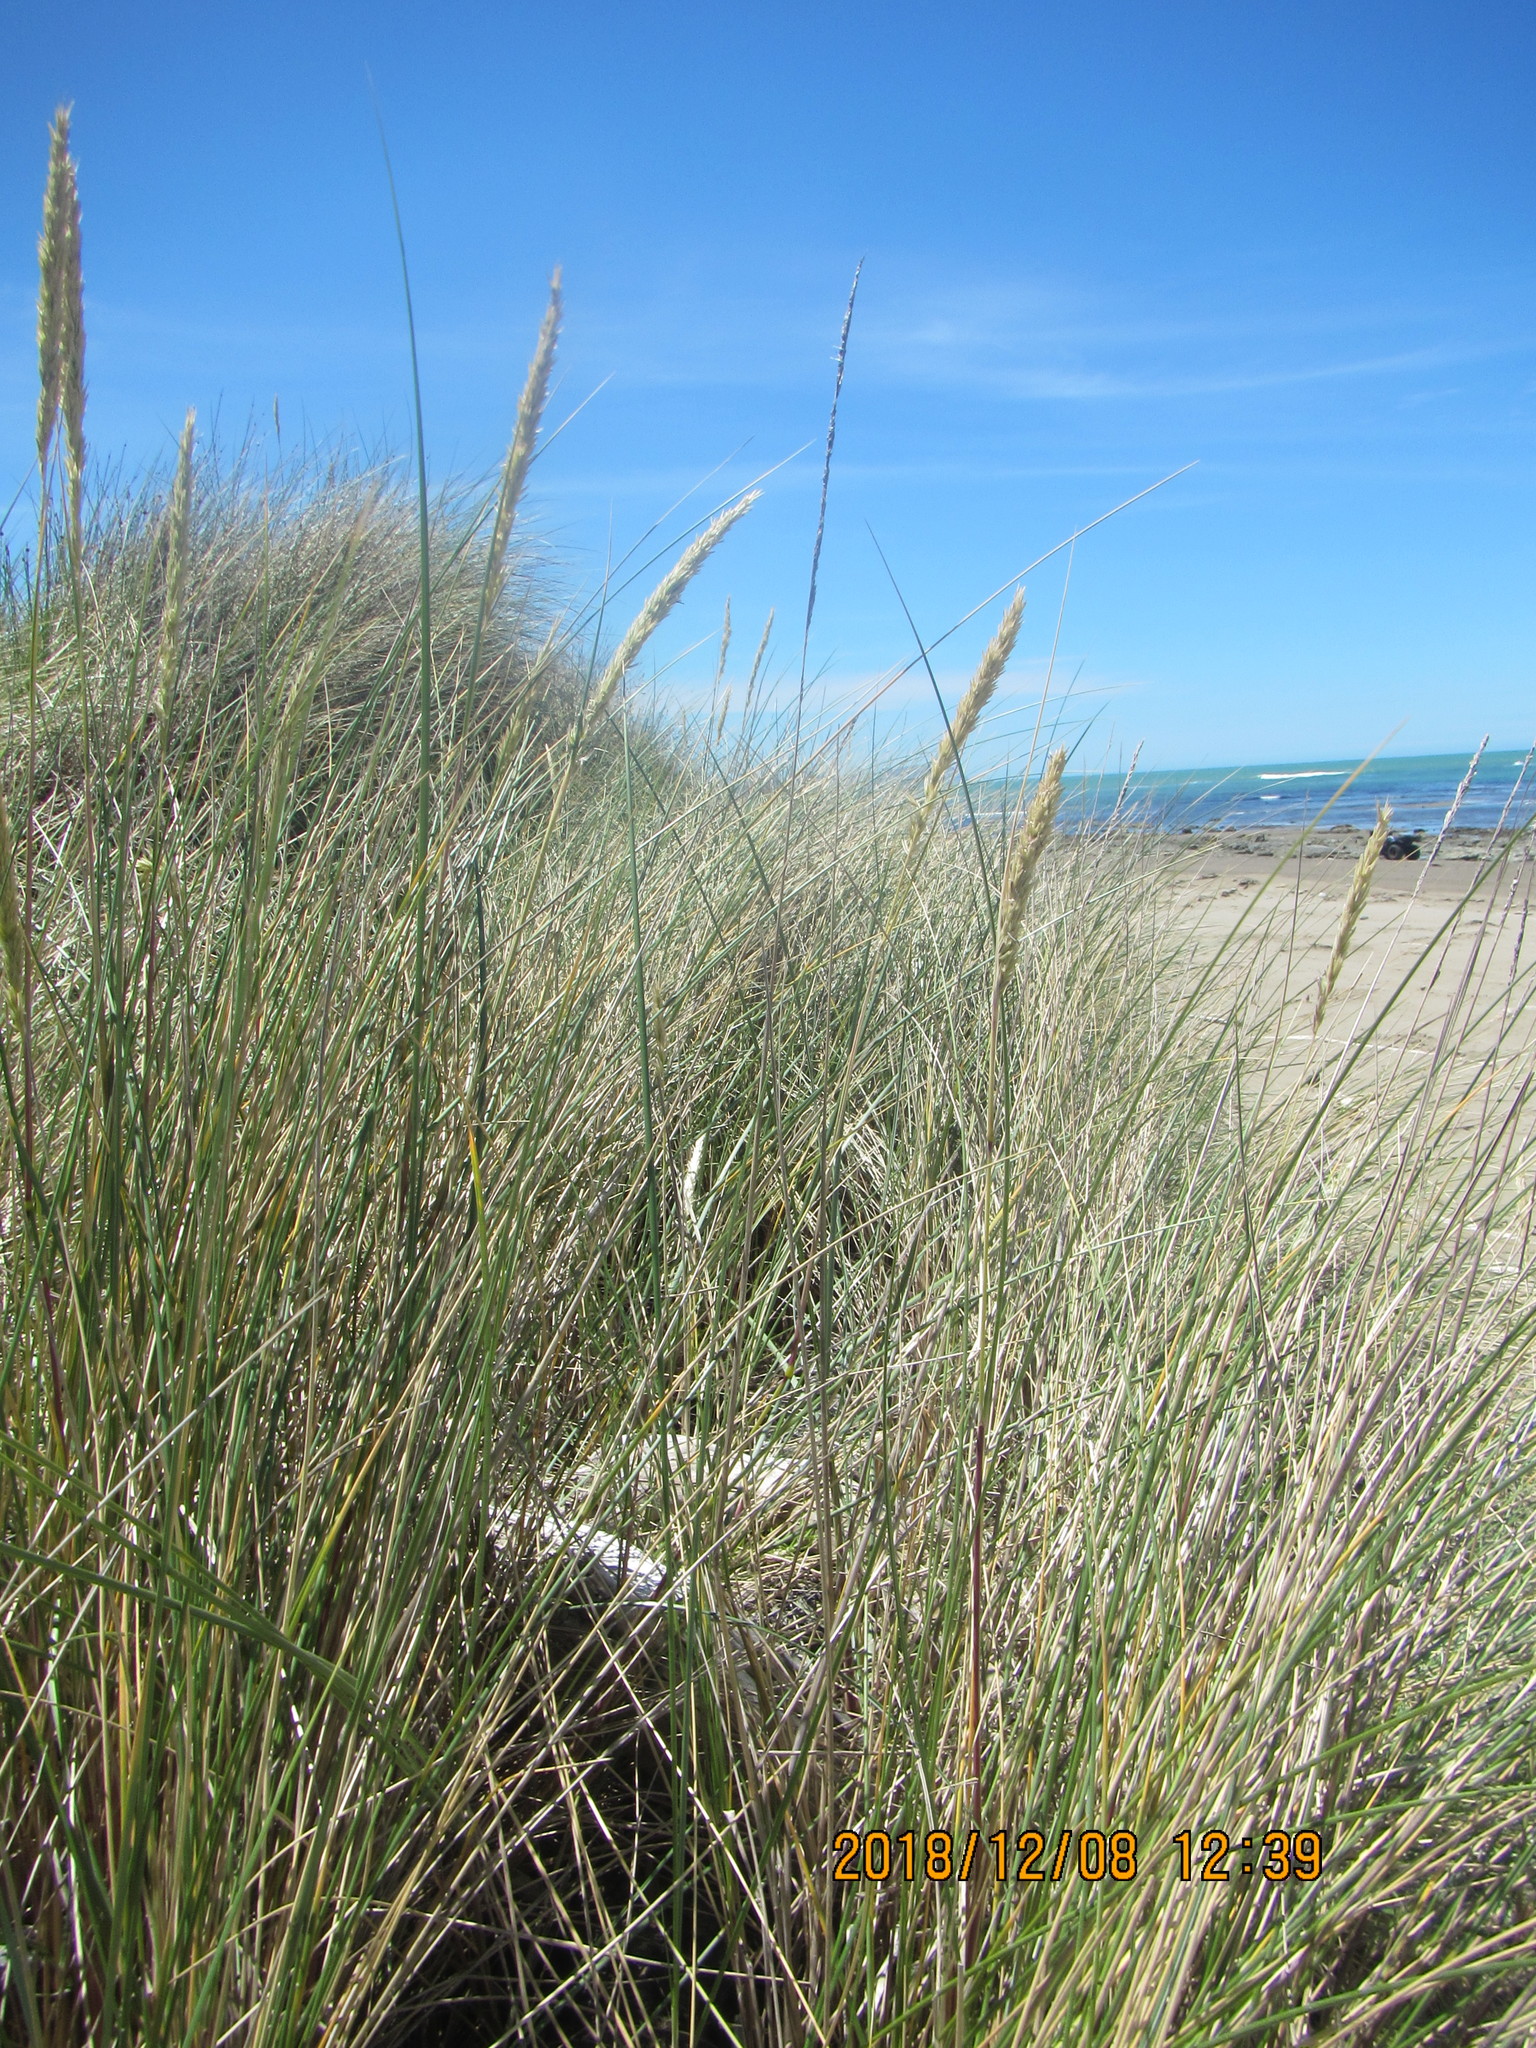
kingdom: Plantae
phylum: Tracheophyta
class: Liliopsida
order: Poales
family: Poaceae
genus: Calamagrostis
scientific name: Calamagrostis arenaria
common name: European beachgrass
